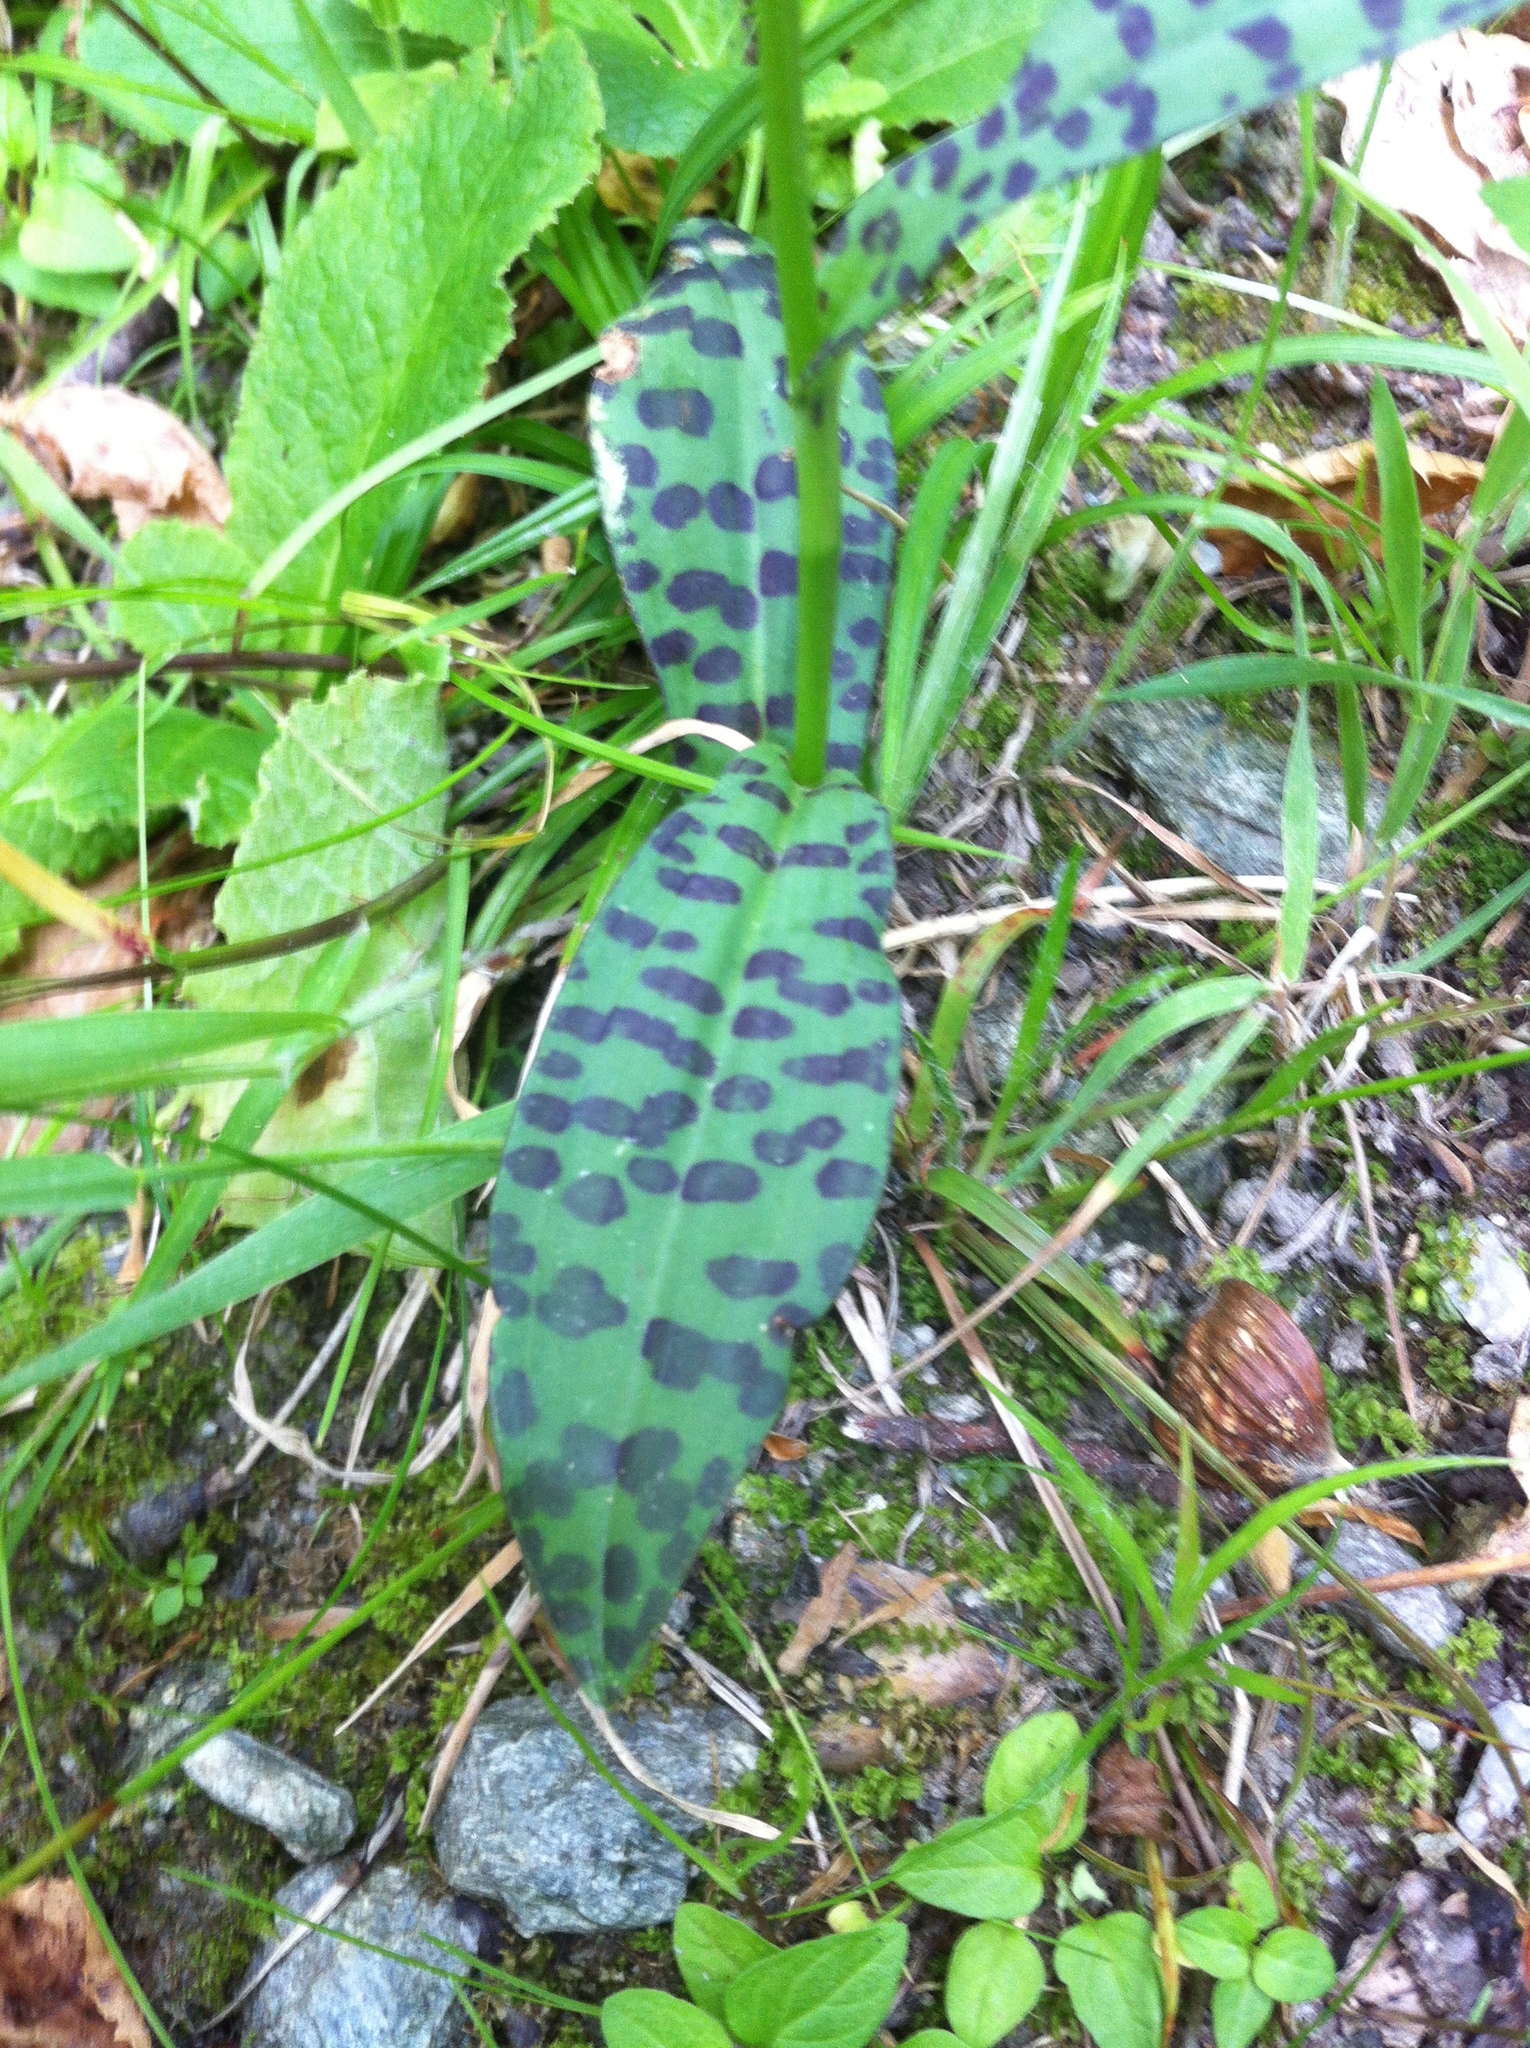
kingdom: Plantae
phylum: Tracheophyta
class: Liliopsida
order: Asparagales
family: Orchidaceae
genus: Dactylorhiza
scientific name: Dactylorhiza maculata
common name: Heath spotted-orchid
